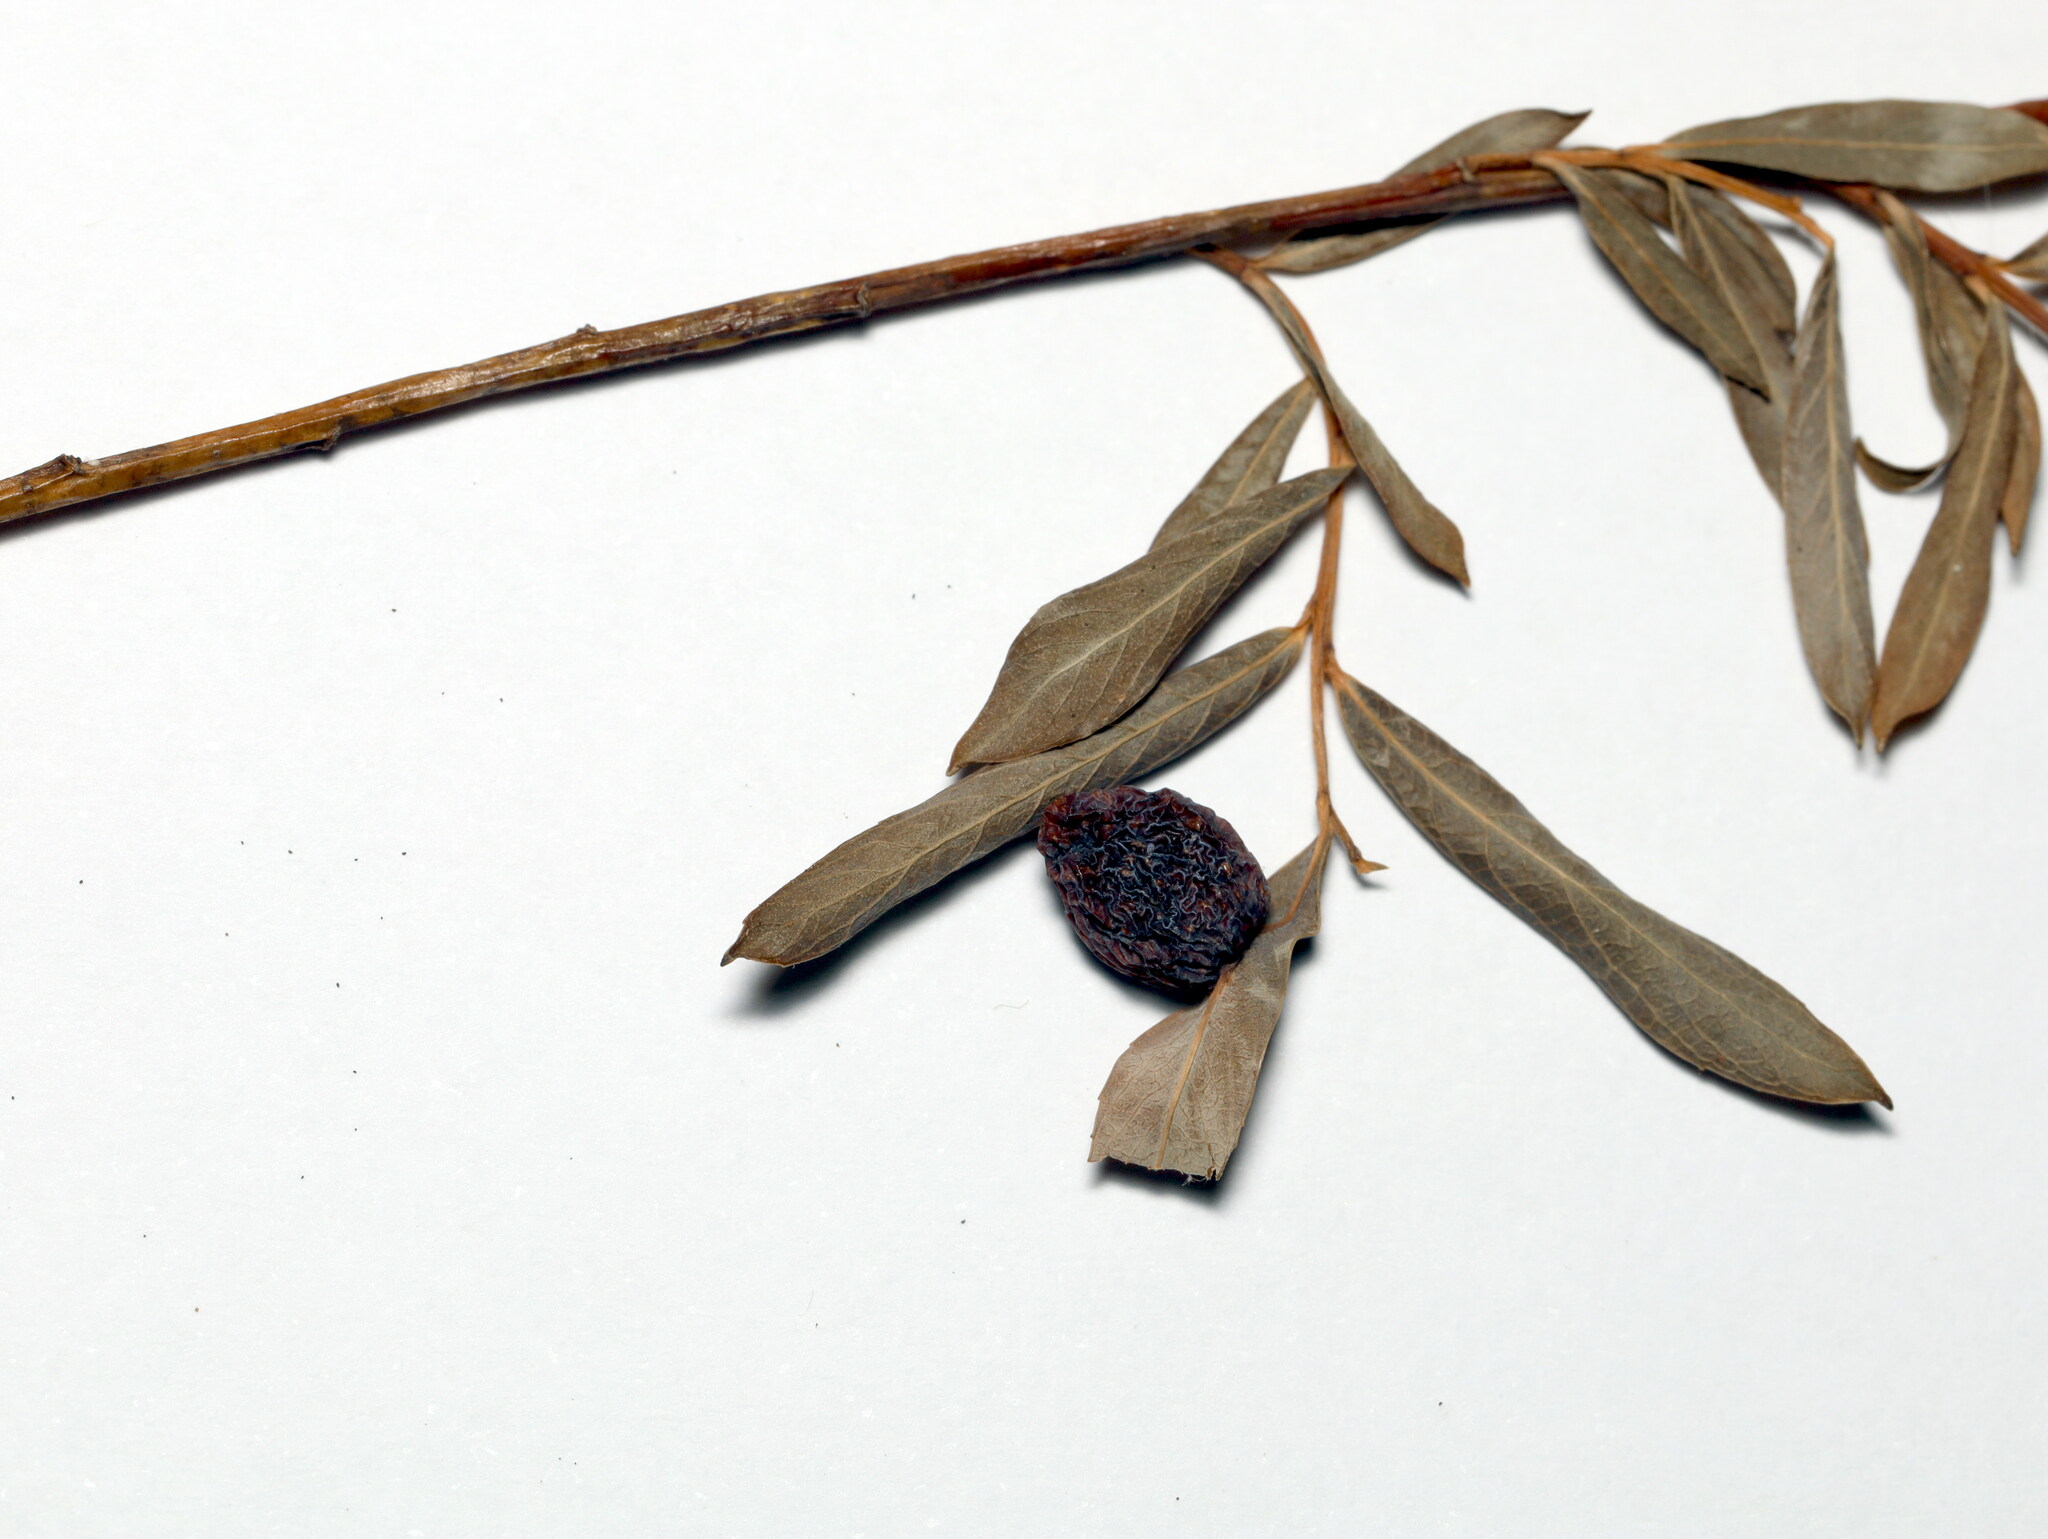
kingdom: Animalia
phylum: Arthropoda
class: Insecta
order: Hymenoptera
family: Tenthredinidae
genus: Euura
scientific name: Euura viminalis
